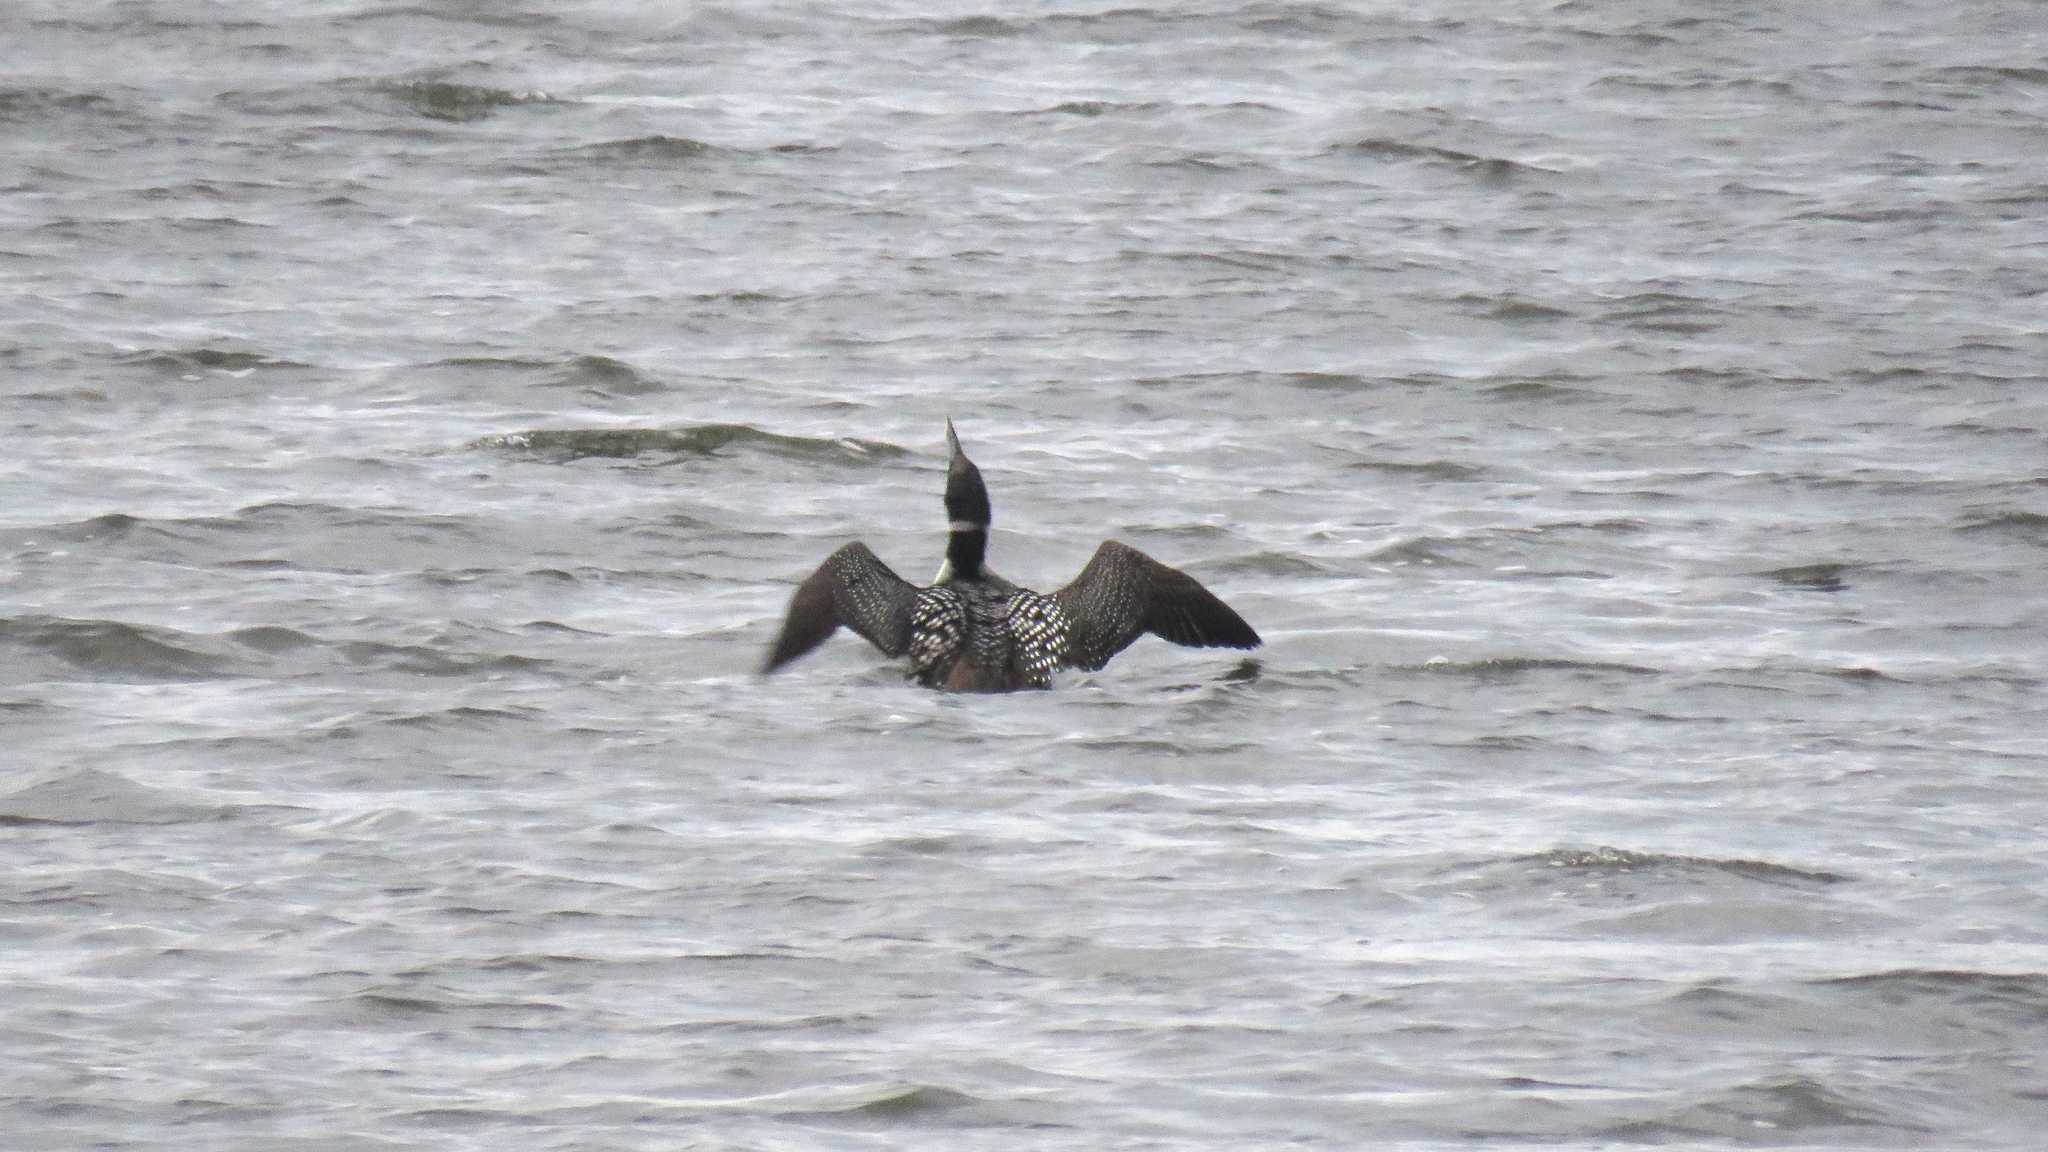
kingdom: Animalia
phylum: Chordata
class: Aves
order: Gaviiformes
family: Gaviidae
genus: Gavia
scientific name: Gavia immer
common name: Common loon
